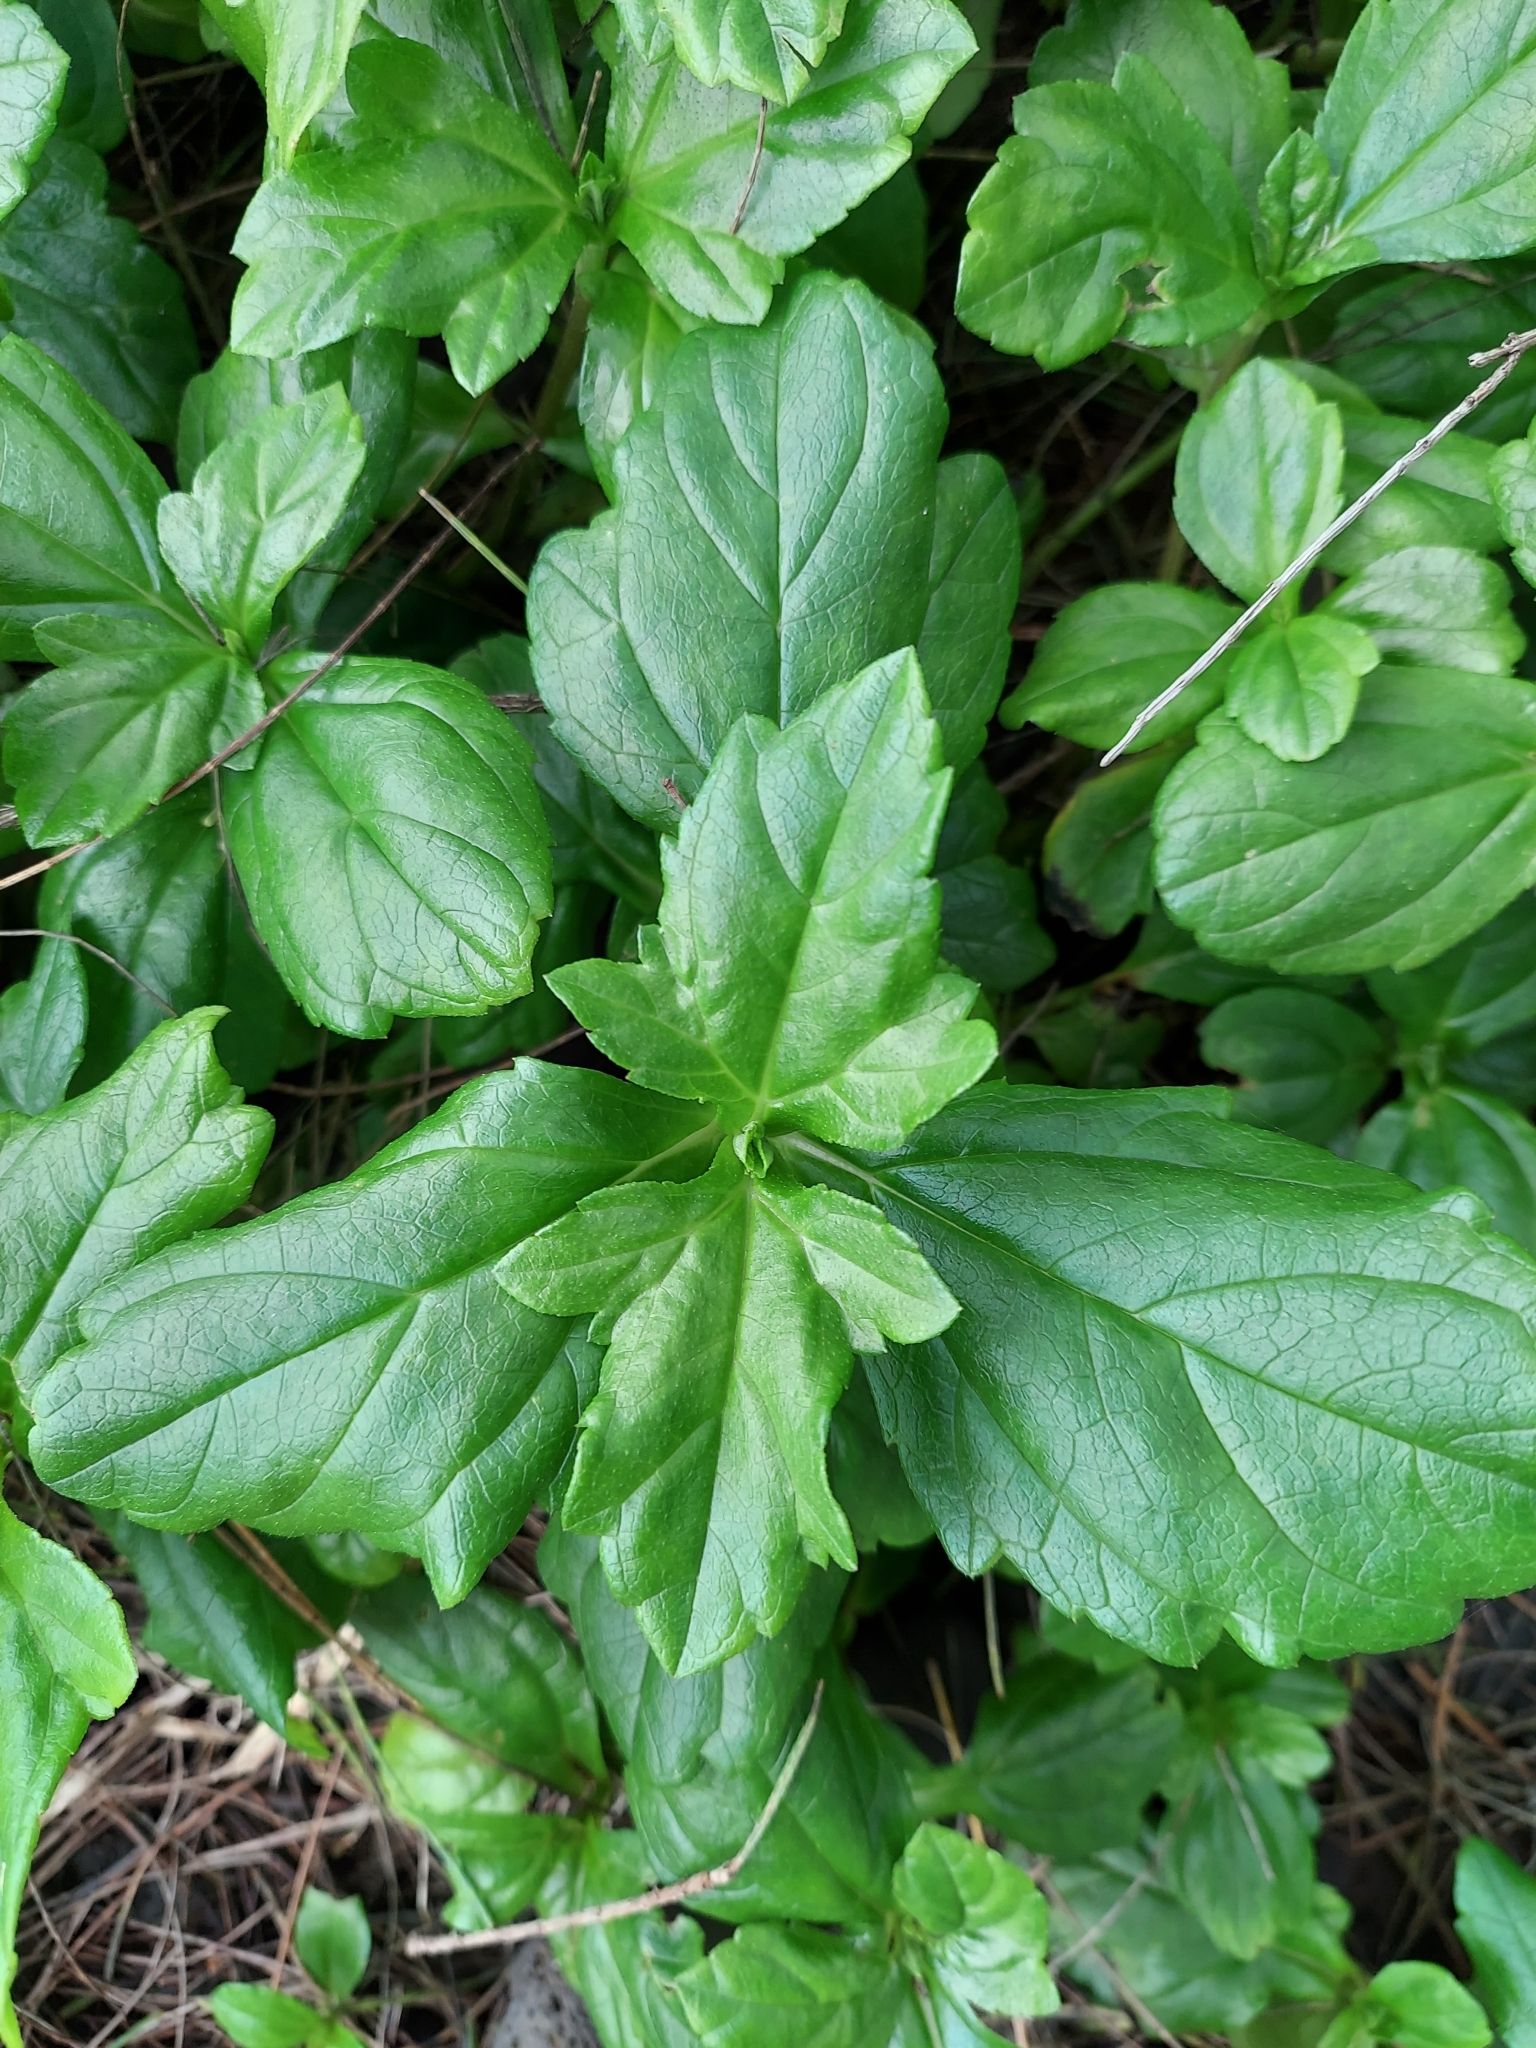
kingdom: Plantae
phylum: Tracheophyta
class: Magnoliopsida
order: Asterales
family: Asteraceae
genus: Sphagneticola
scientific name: Sphagneticola trilobata
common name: Bay biscayne creeping-oxeye
